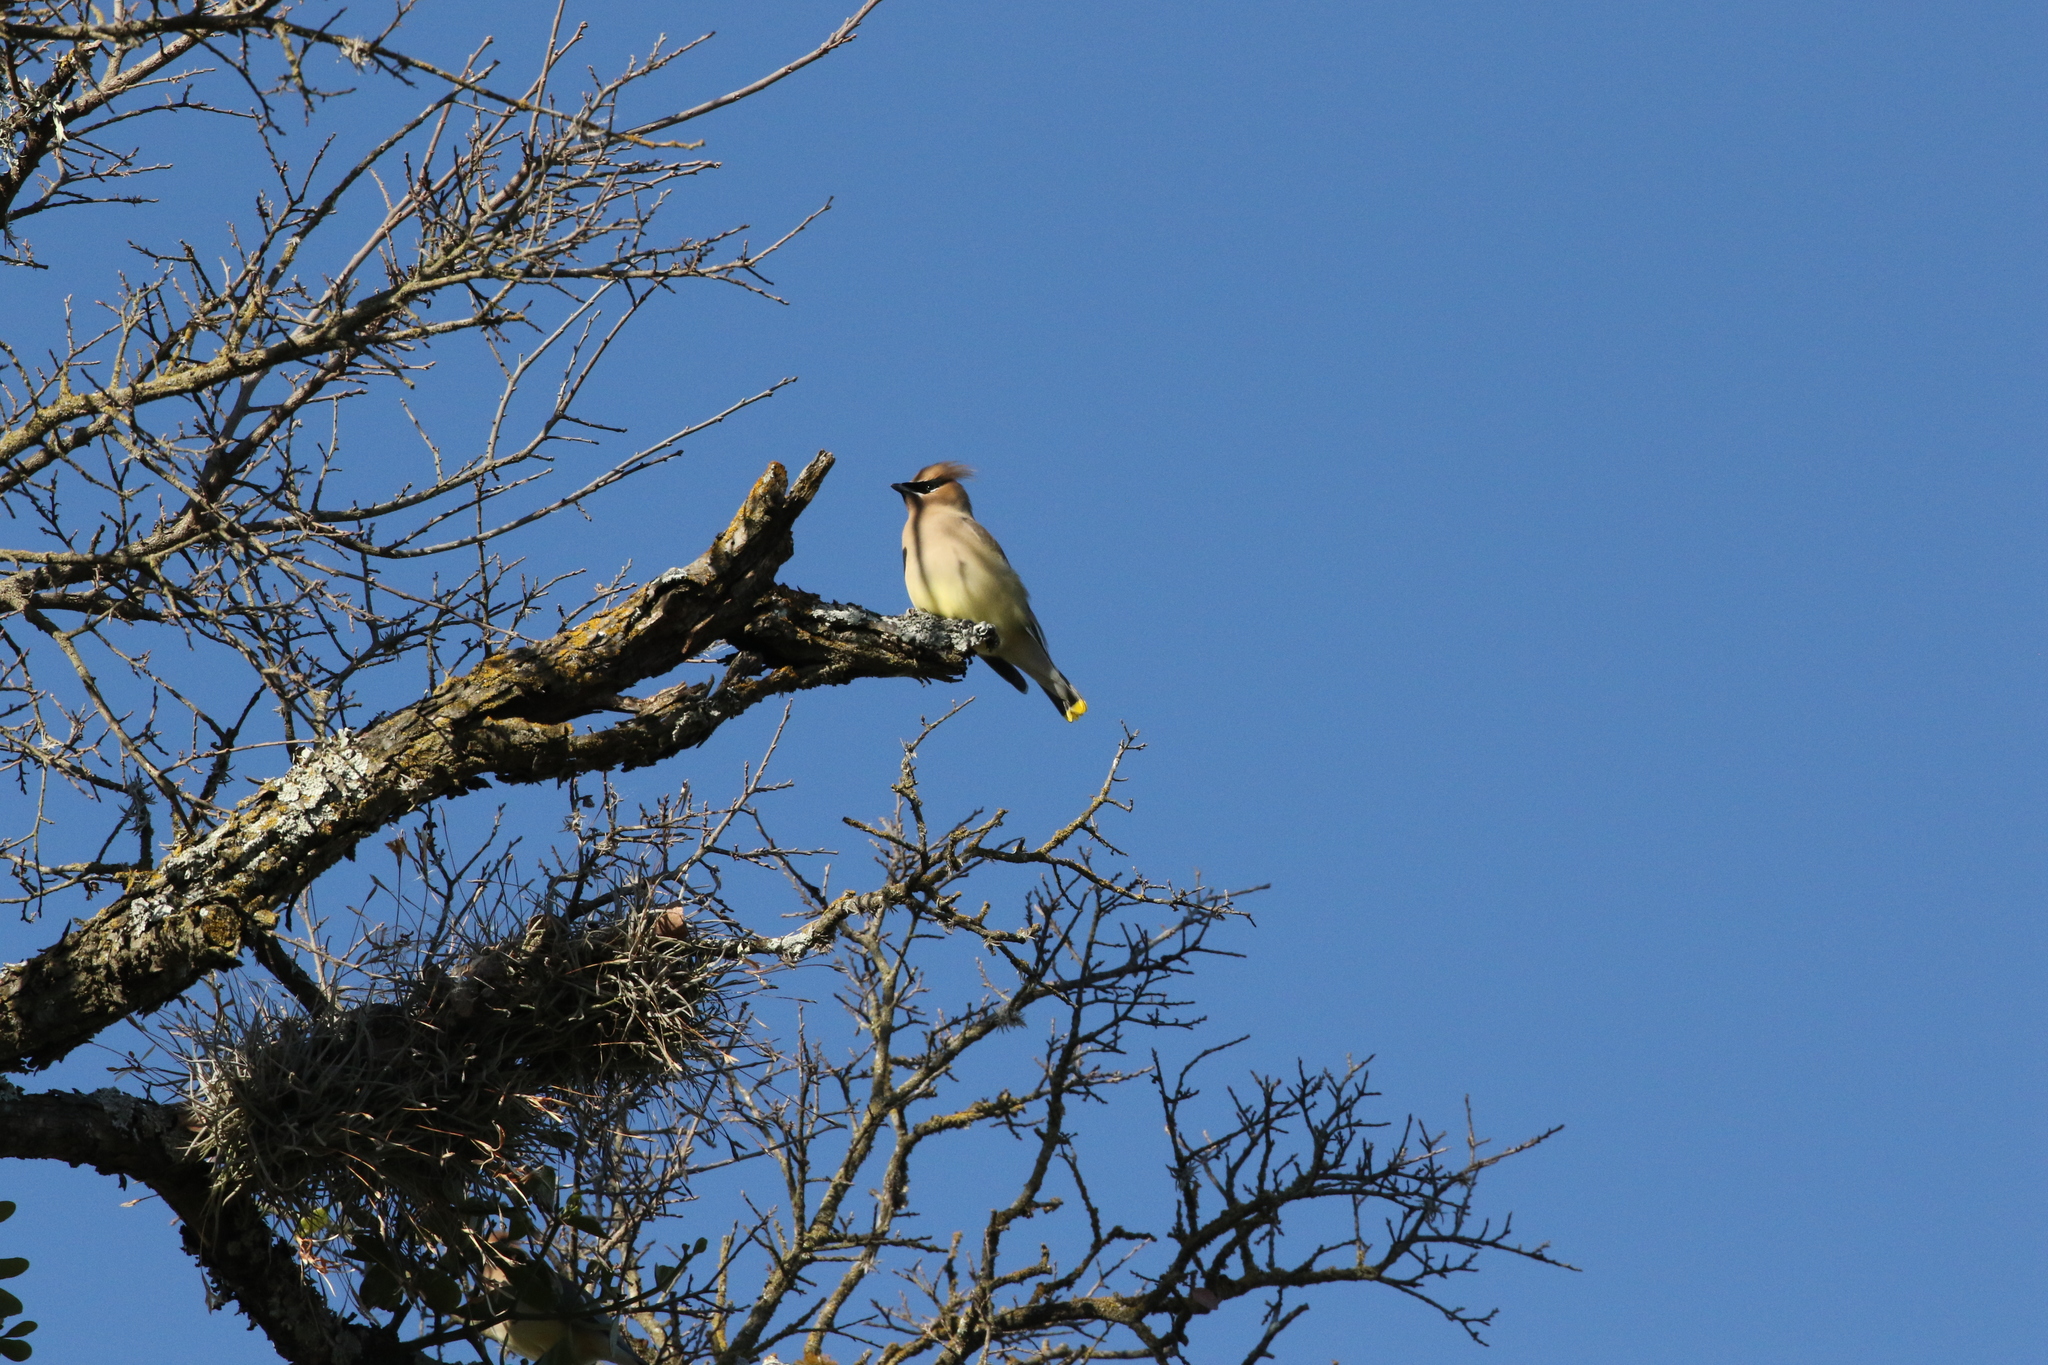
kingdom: Animalia
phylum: Chordata
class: Aves
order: Passeriformes
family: Bombycillidae
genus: Bombycilla
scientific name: Bombycilla cedrorum
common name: Cedar waxwing
